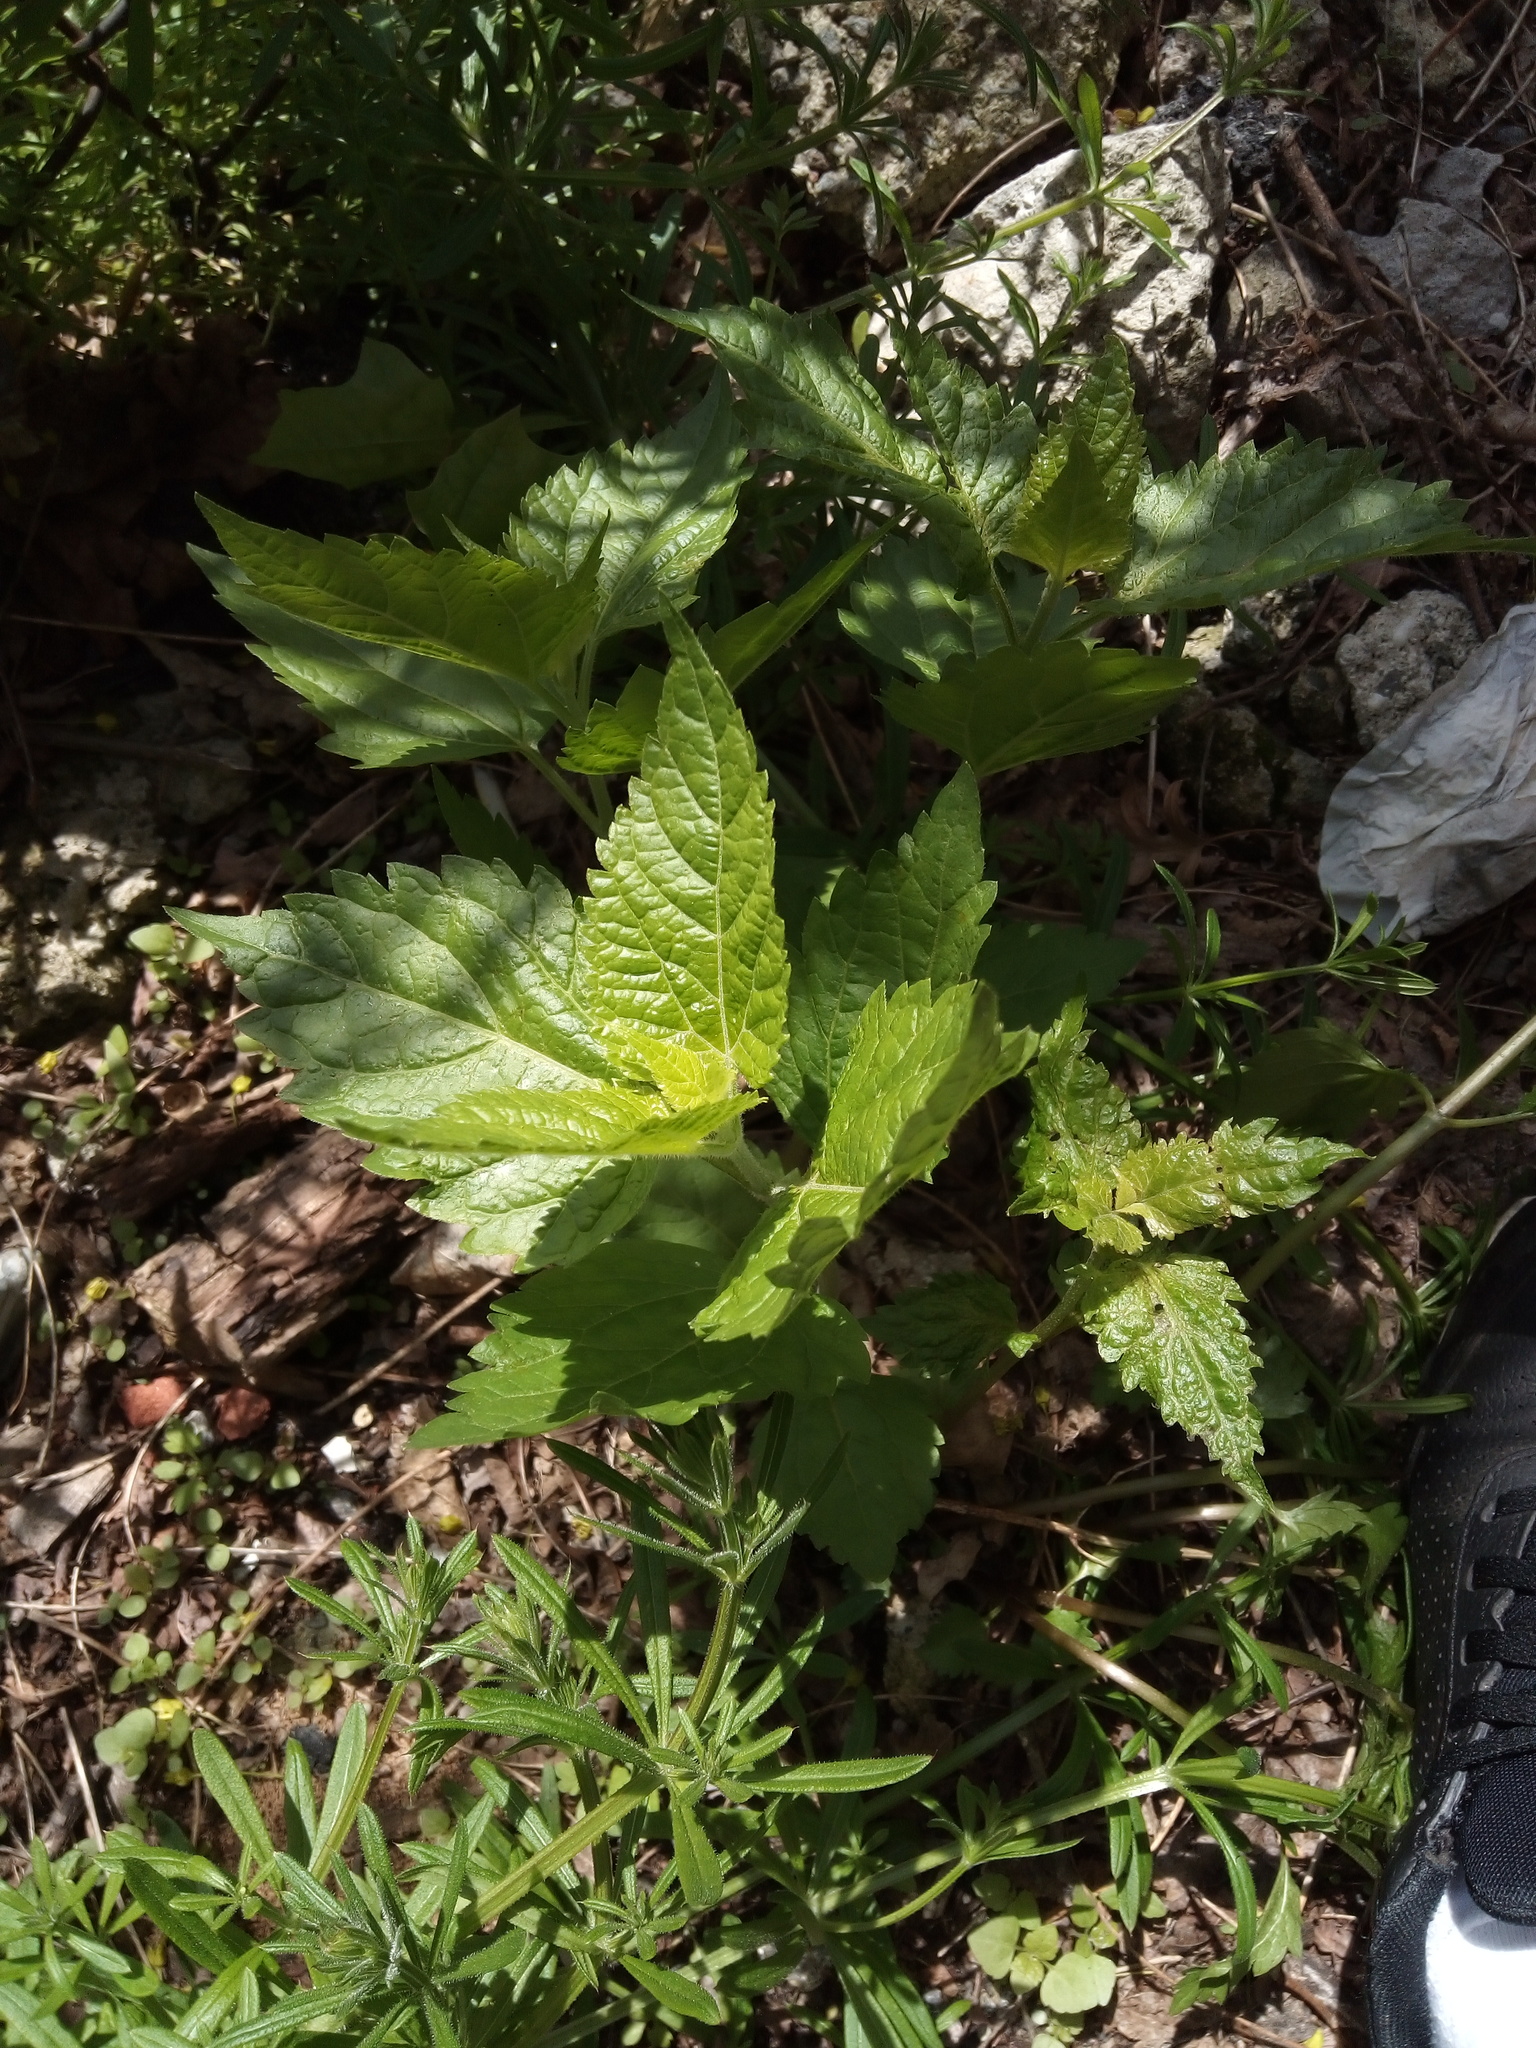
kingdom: Plantae
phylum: Tracheophyta
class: Magnoliopsida
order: Asterales
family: Asteraceae
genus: Ageratina
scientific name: Ageratina altissima
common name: White snakeroot
